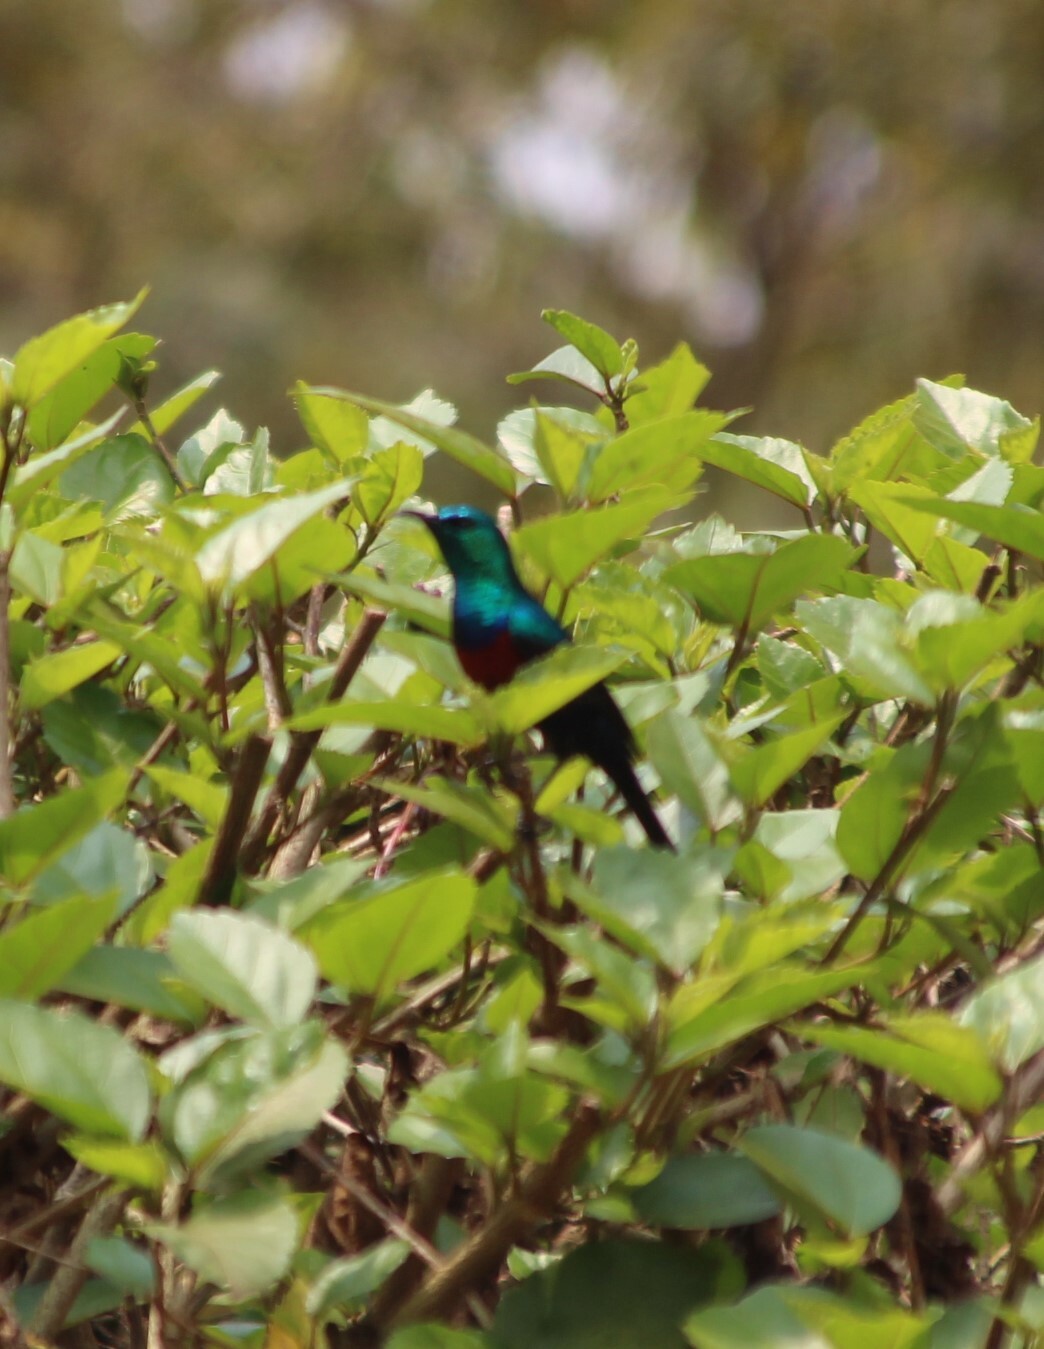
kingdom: Animalia
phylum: Chordata
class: Aves
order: Passeriformes
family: Nectariniidae
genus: Cinnyris
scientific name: Cinnyris erythrocercus
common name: Red-chested sunbird
